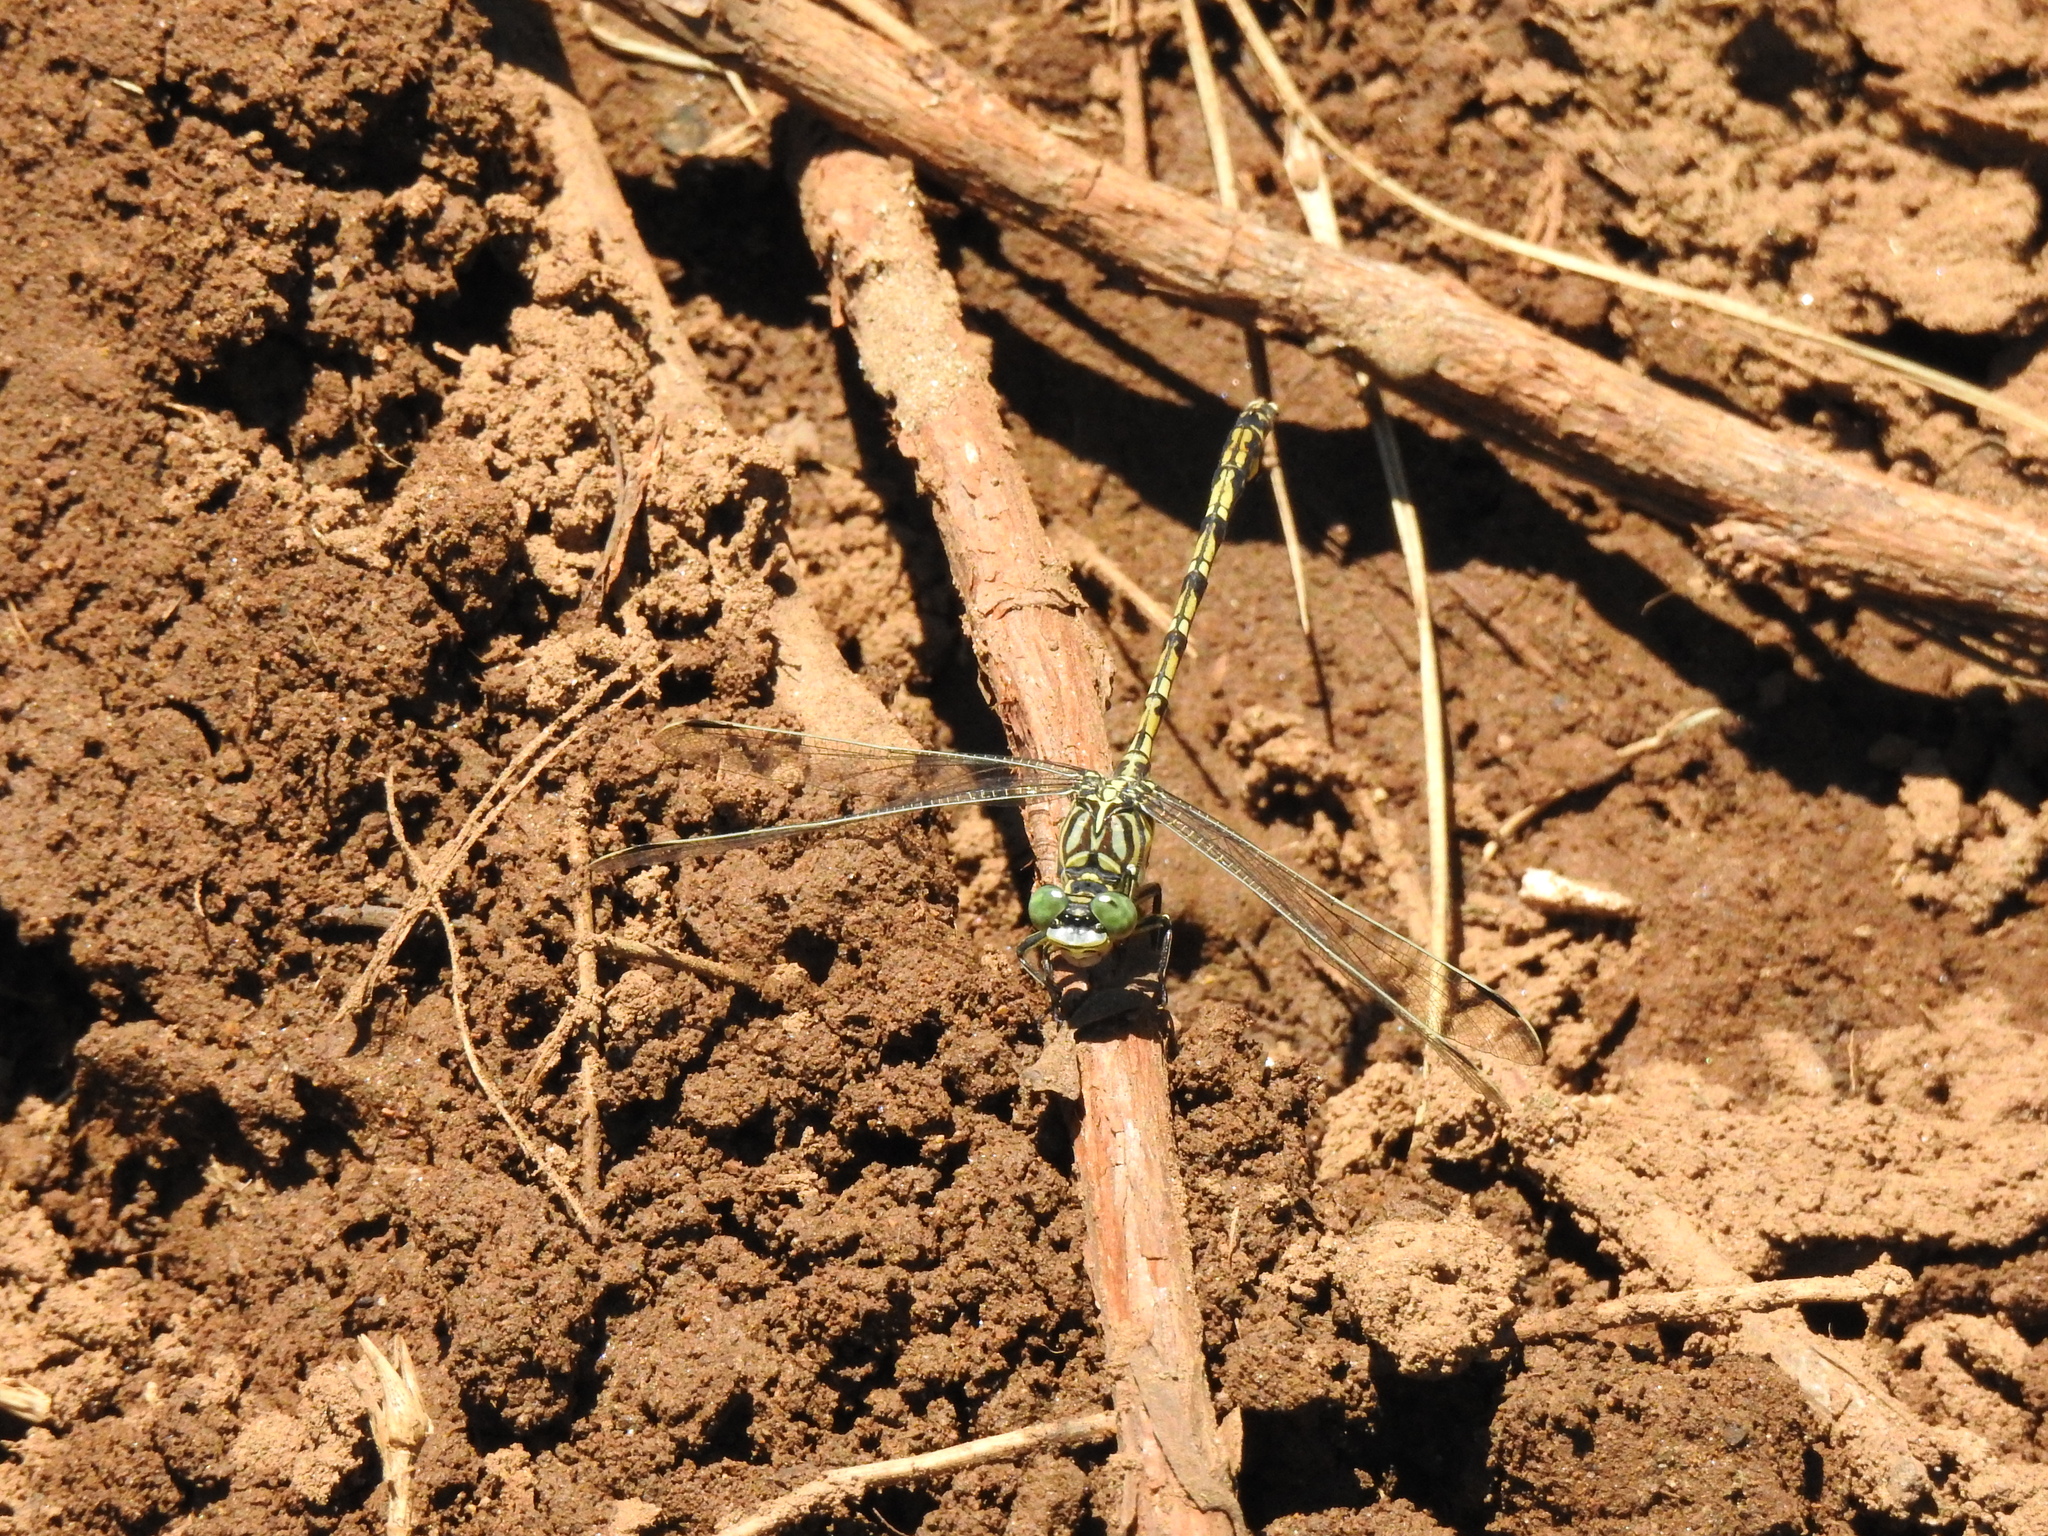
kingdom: Animalia
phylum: Arthropoda
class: Insecta
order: Odonata
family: Gomphidae
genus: Ceratogomphus
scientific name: Ceratogomphus pictus
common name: Common thorntail
